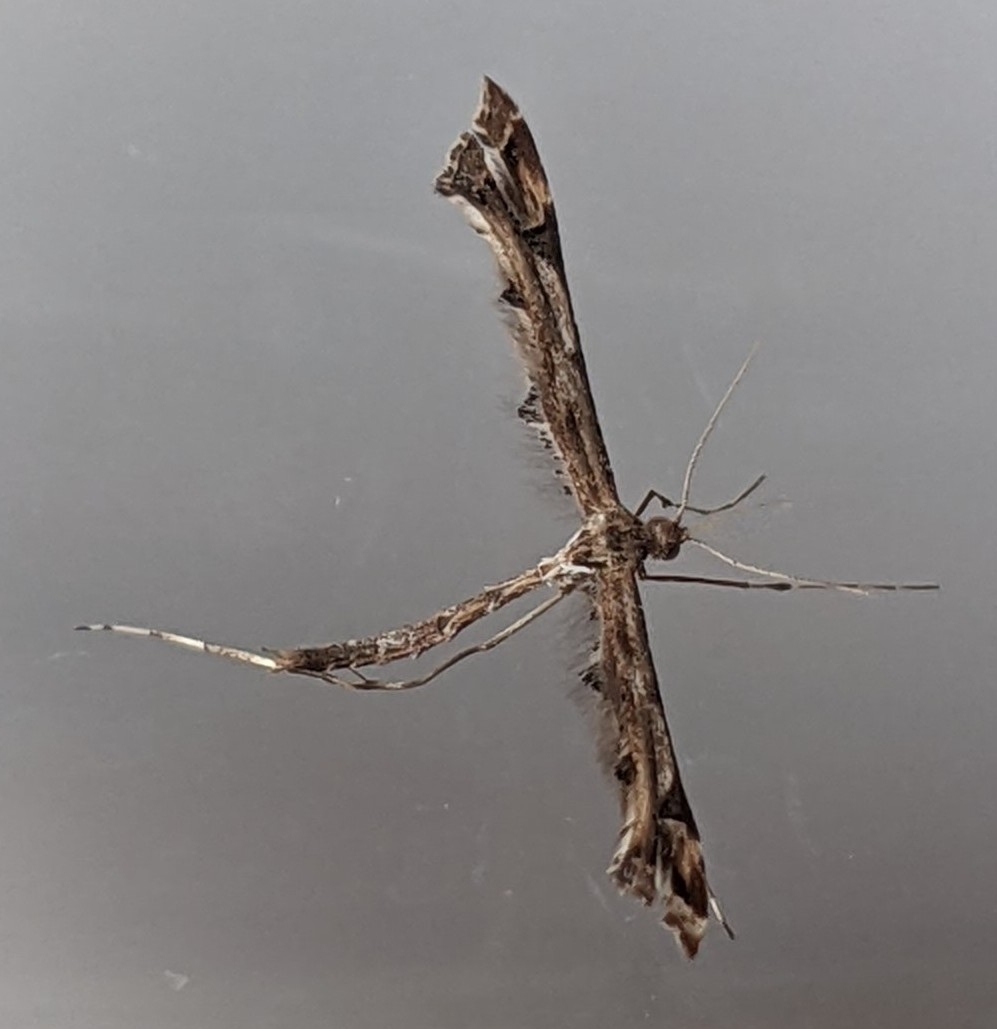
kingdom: Animalia
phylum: Arthropoda
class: Insecta
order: Lepidoptera
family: Pterophoridae
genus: Amblyptilia
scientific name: Amblyptilia acanthadactyla
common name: Beautiful plume
